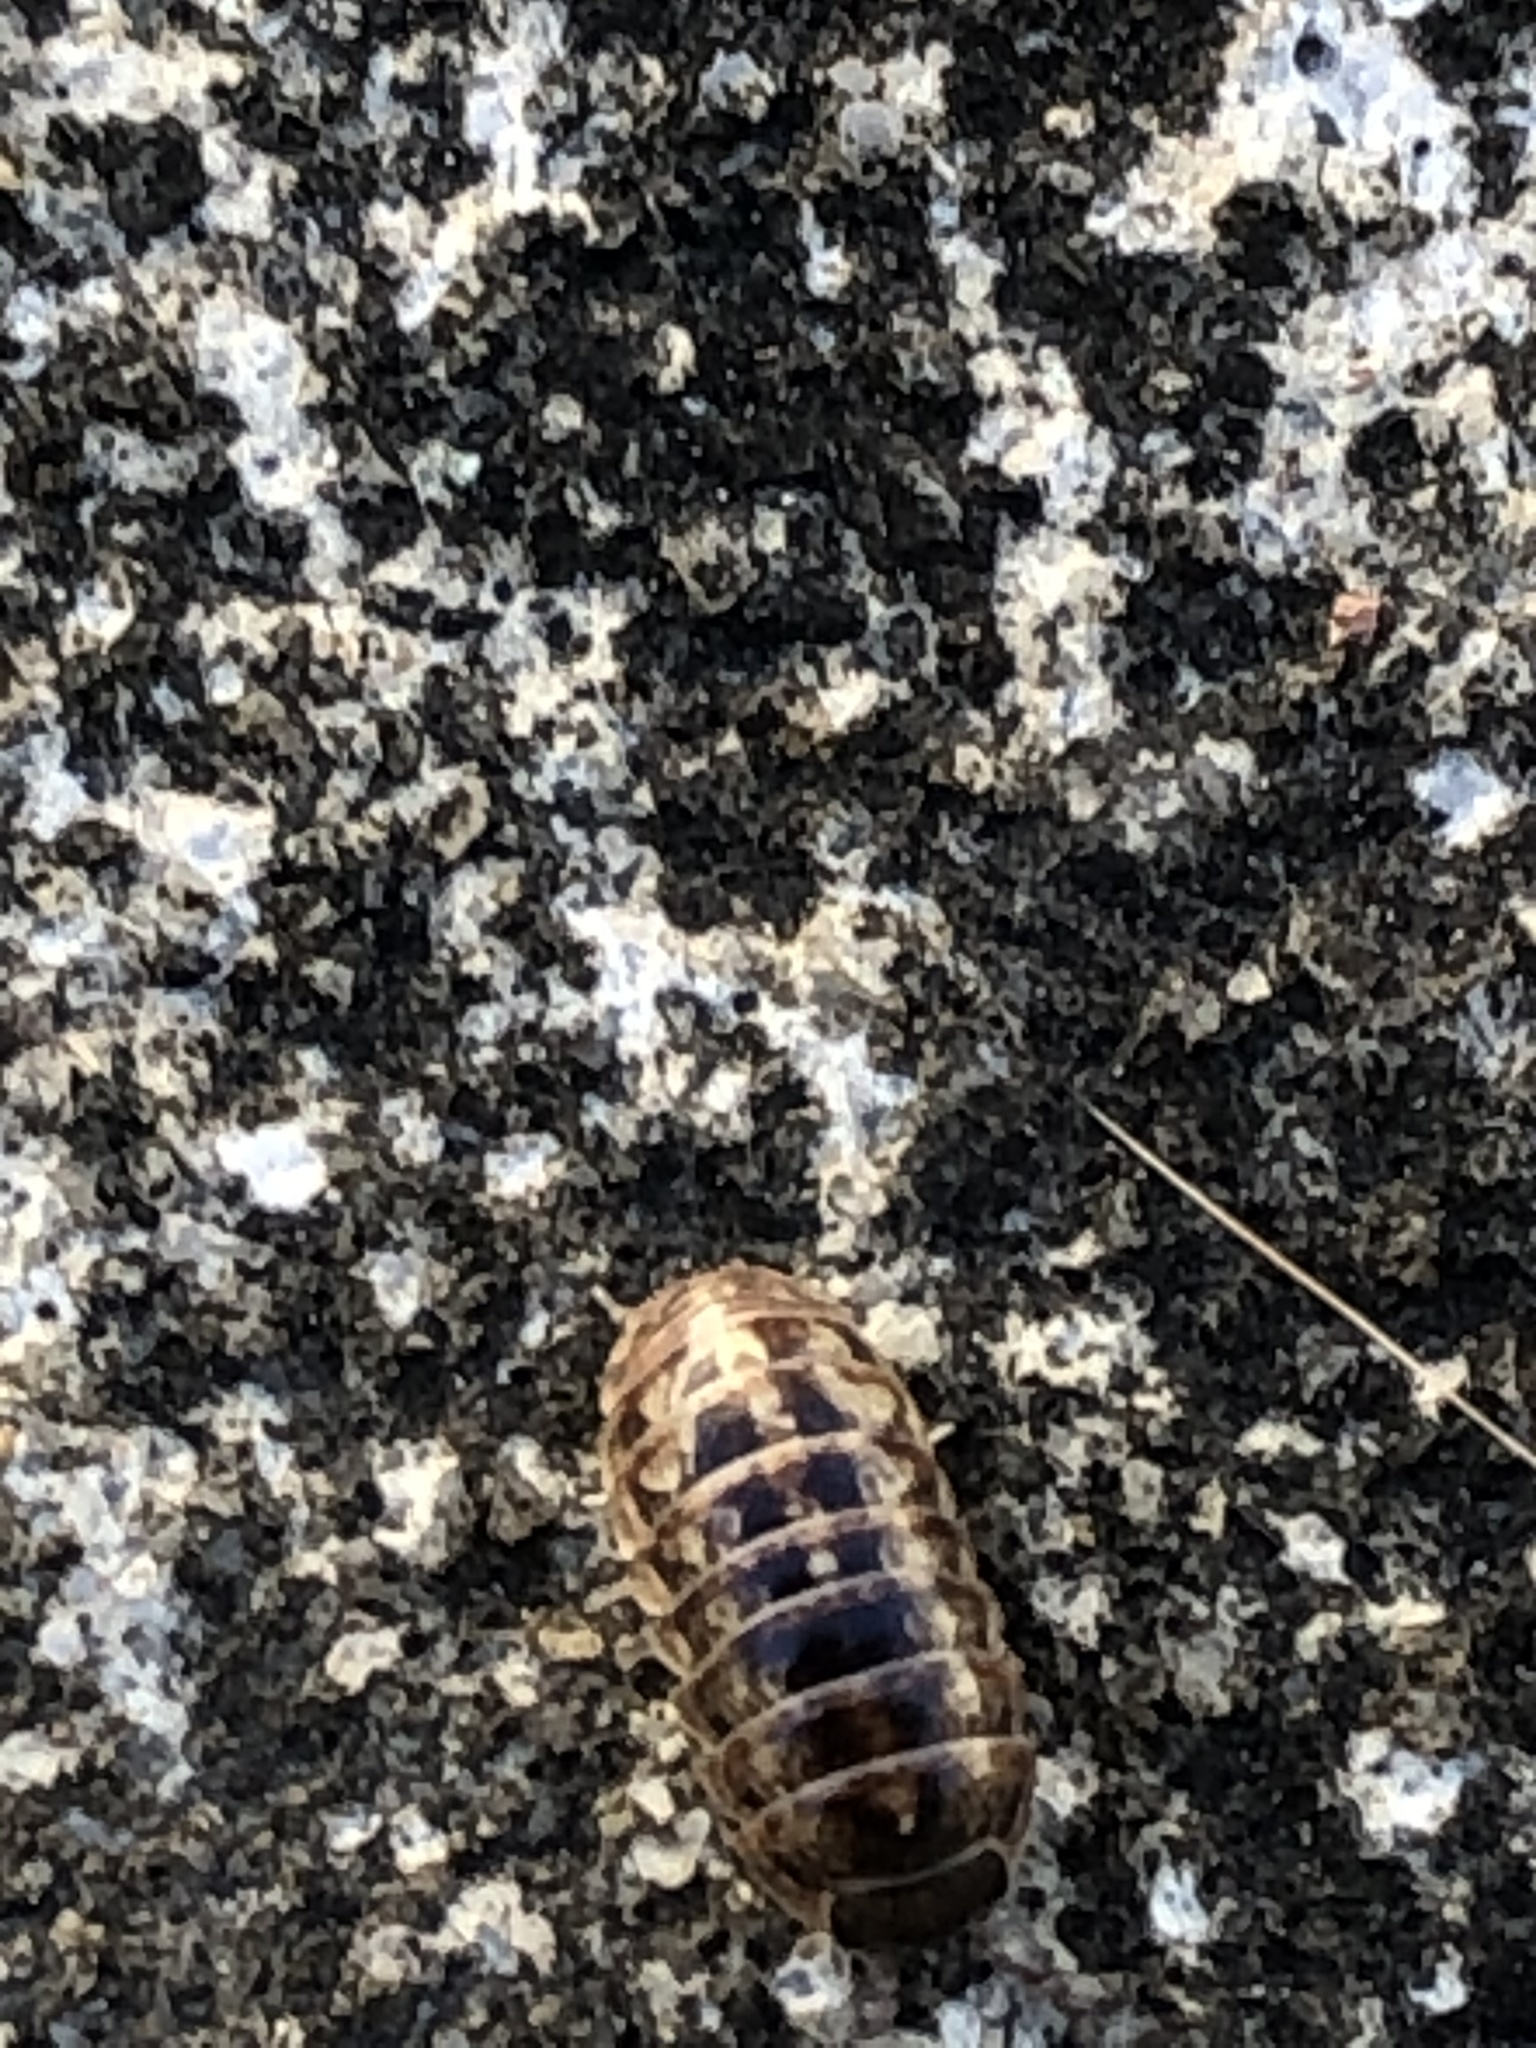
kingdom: Animalia
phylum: Arthropoda
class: Malacostraca
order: Isopoda
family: Armadillidiidae
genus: Armadillidium
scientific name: Armadillidium vulgare
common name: Common pill woodlouse
